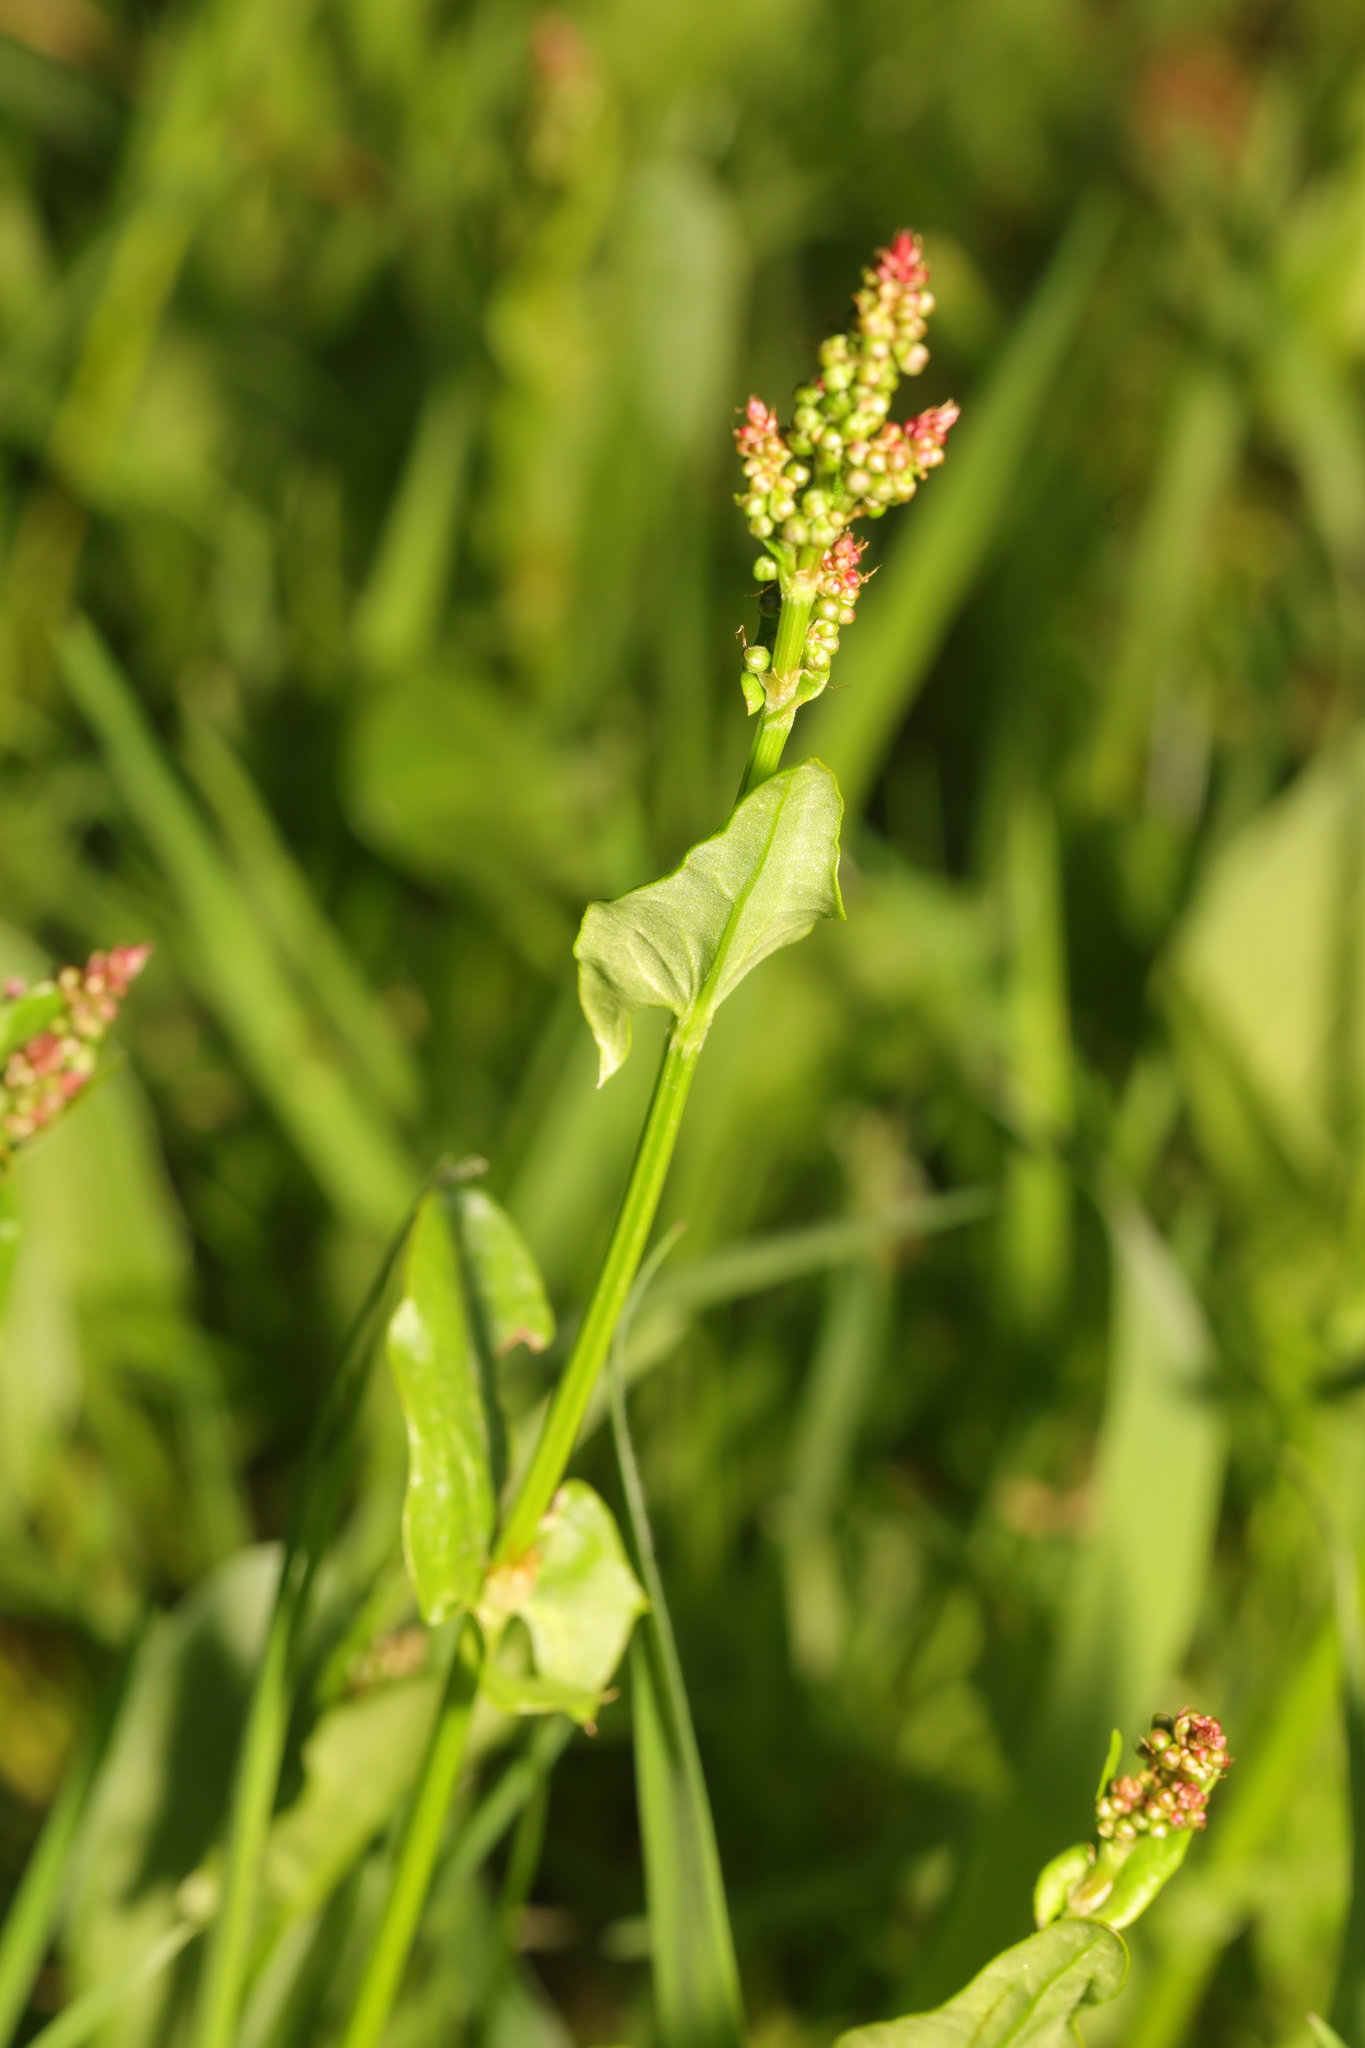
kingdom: Plantae
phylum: Tracheophyta
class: Magnoliopsida
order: Caryophyllales
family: Polygonaceae
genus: Rumex
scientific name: Rumex acetosa
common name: Garden sorrel
